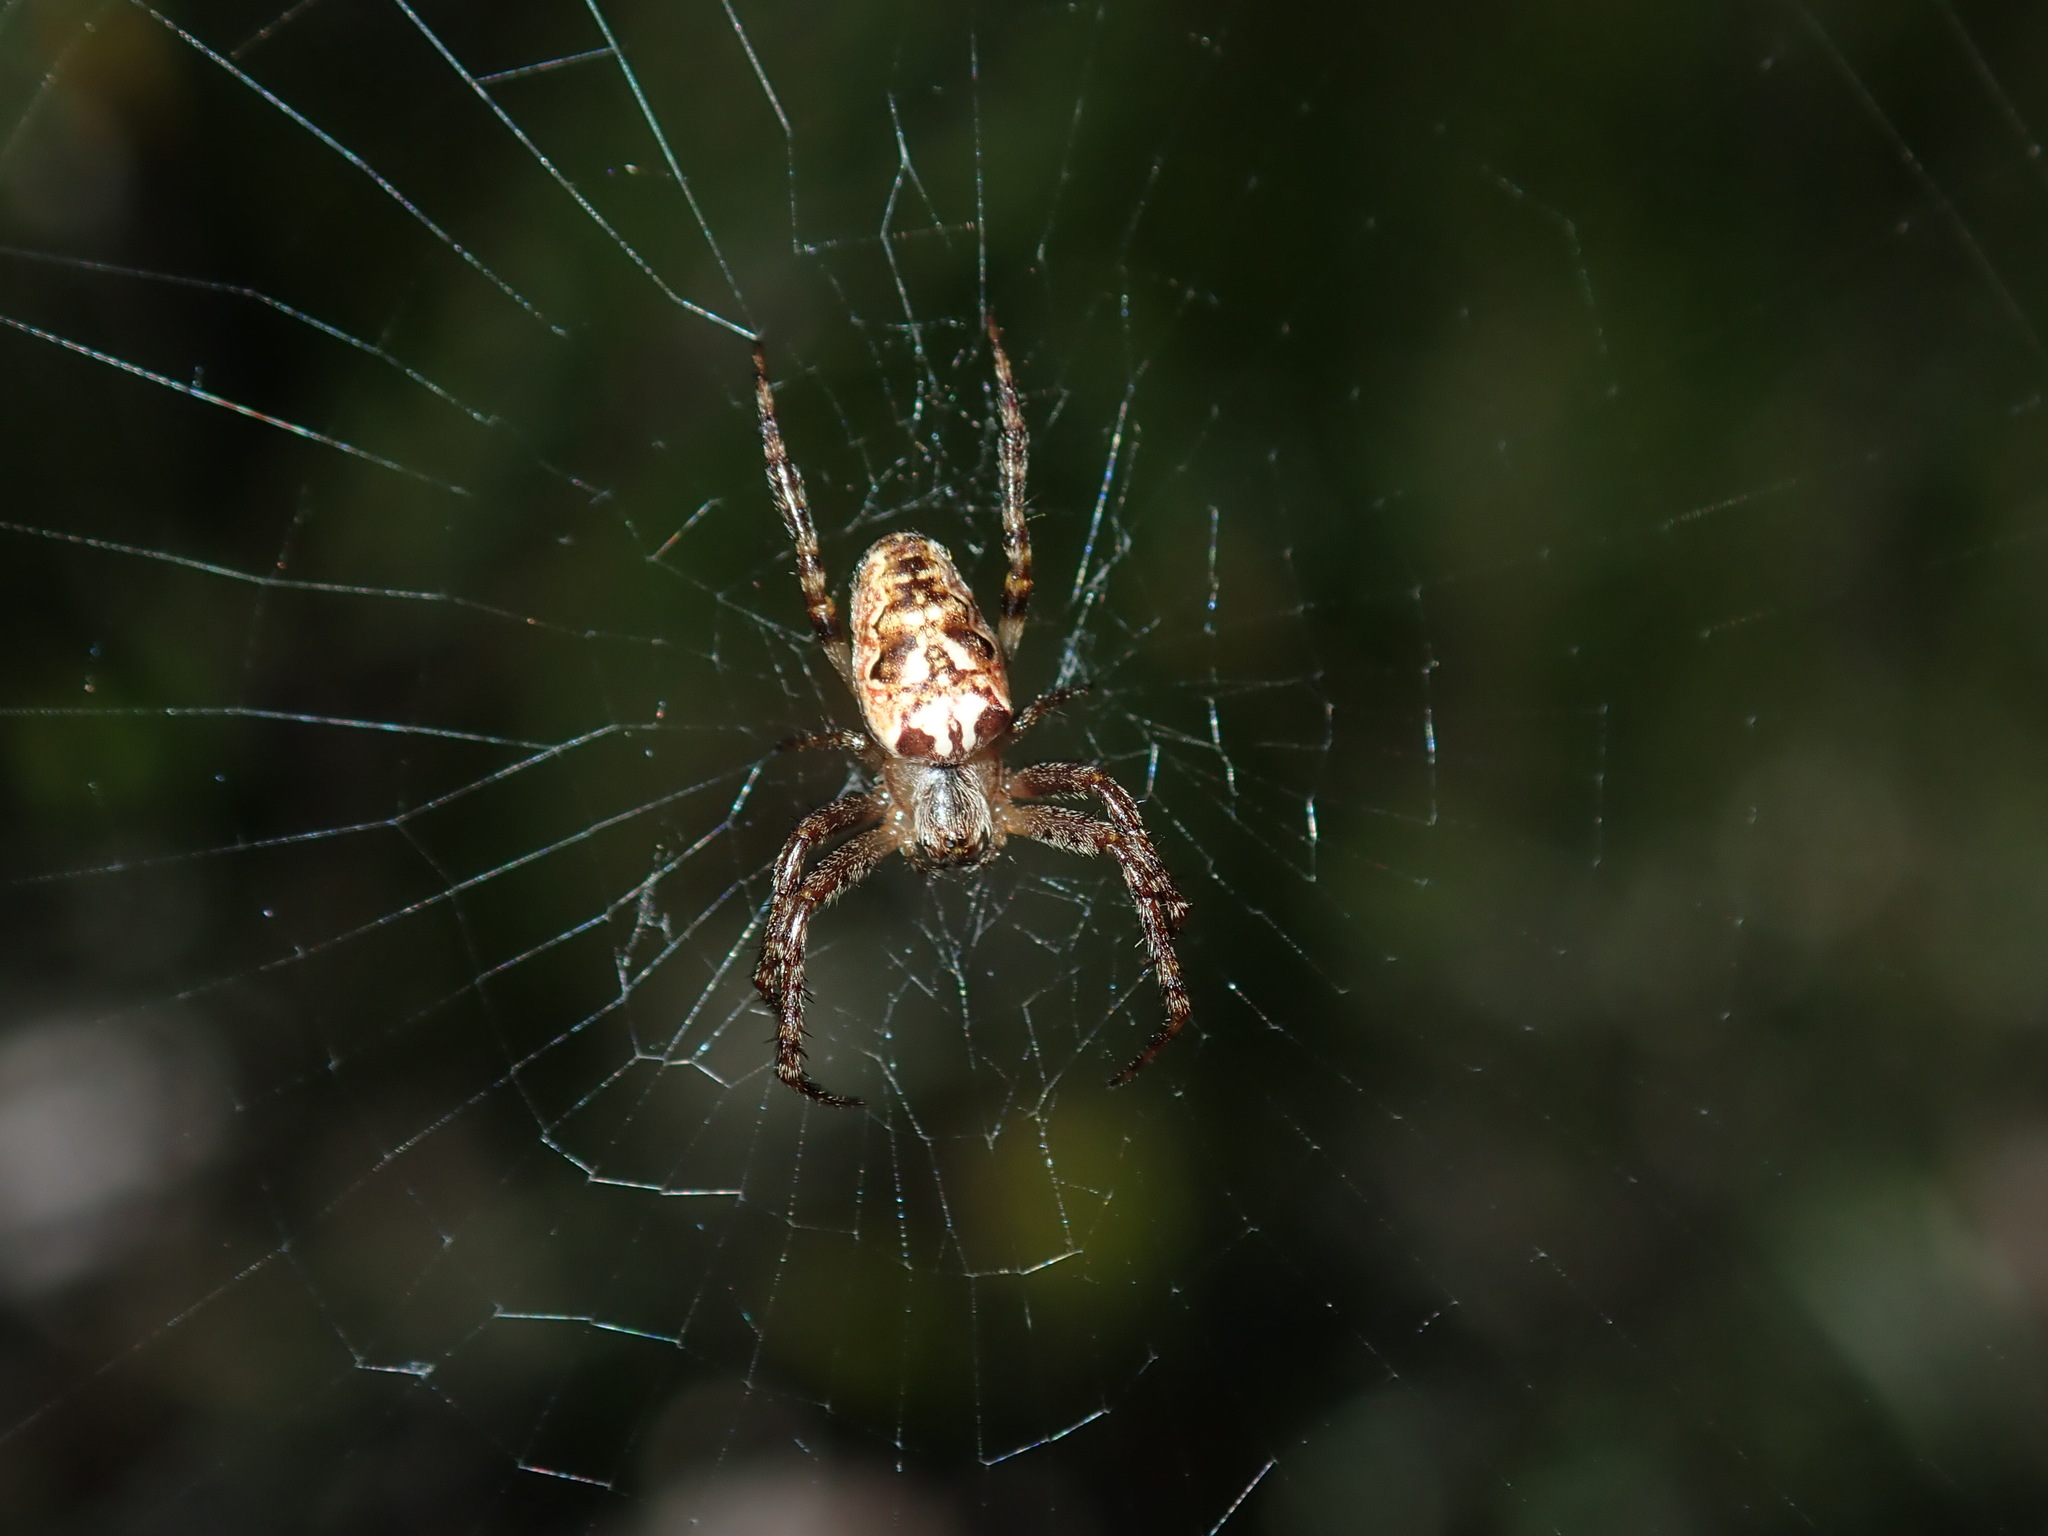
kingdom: Animalia
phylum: Arthropoda
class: Arachnida
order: Araneae
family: Araneidae
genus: Plebs
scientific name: Plebs eburnus
